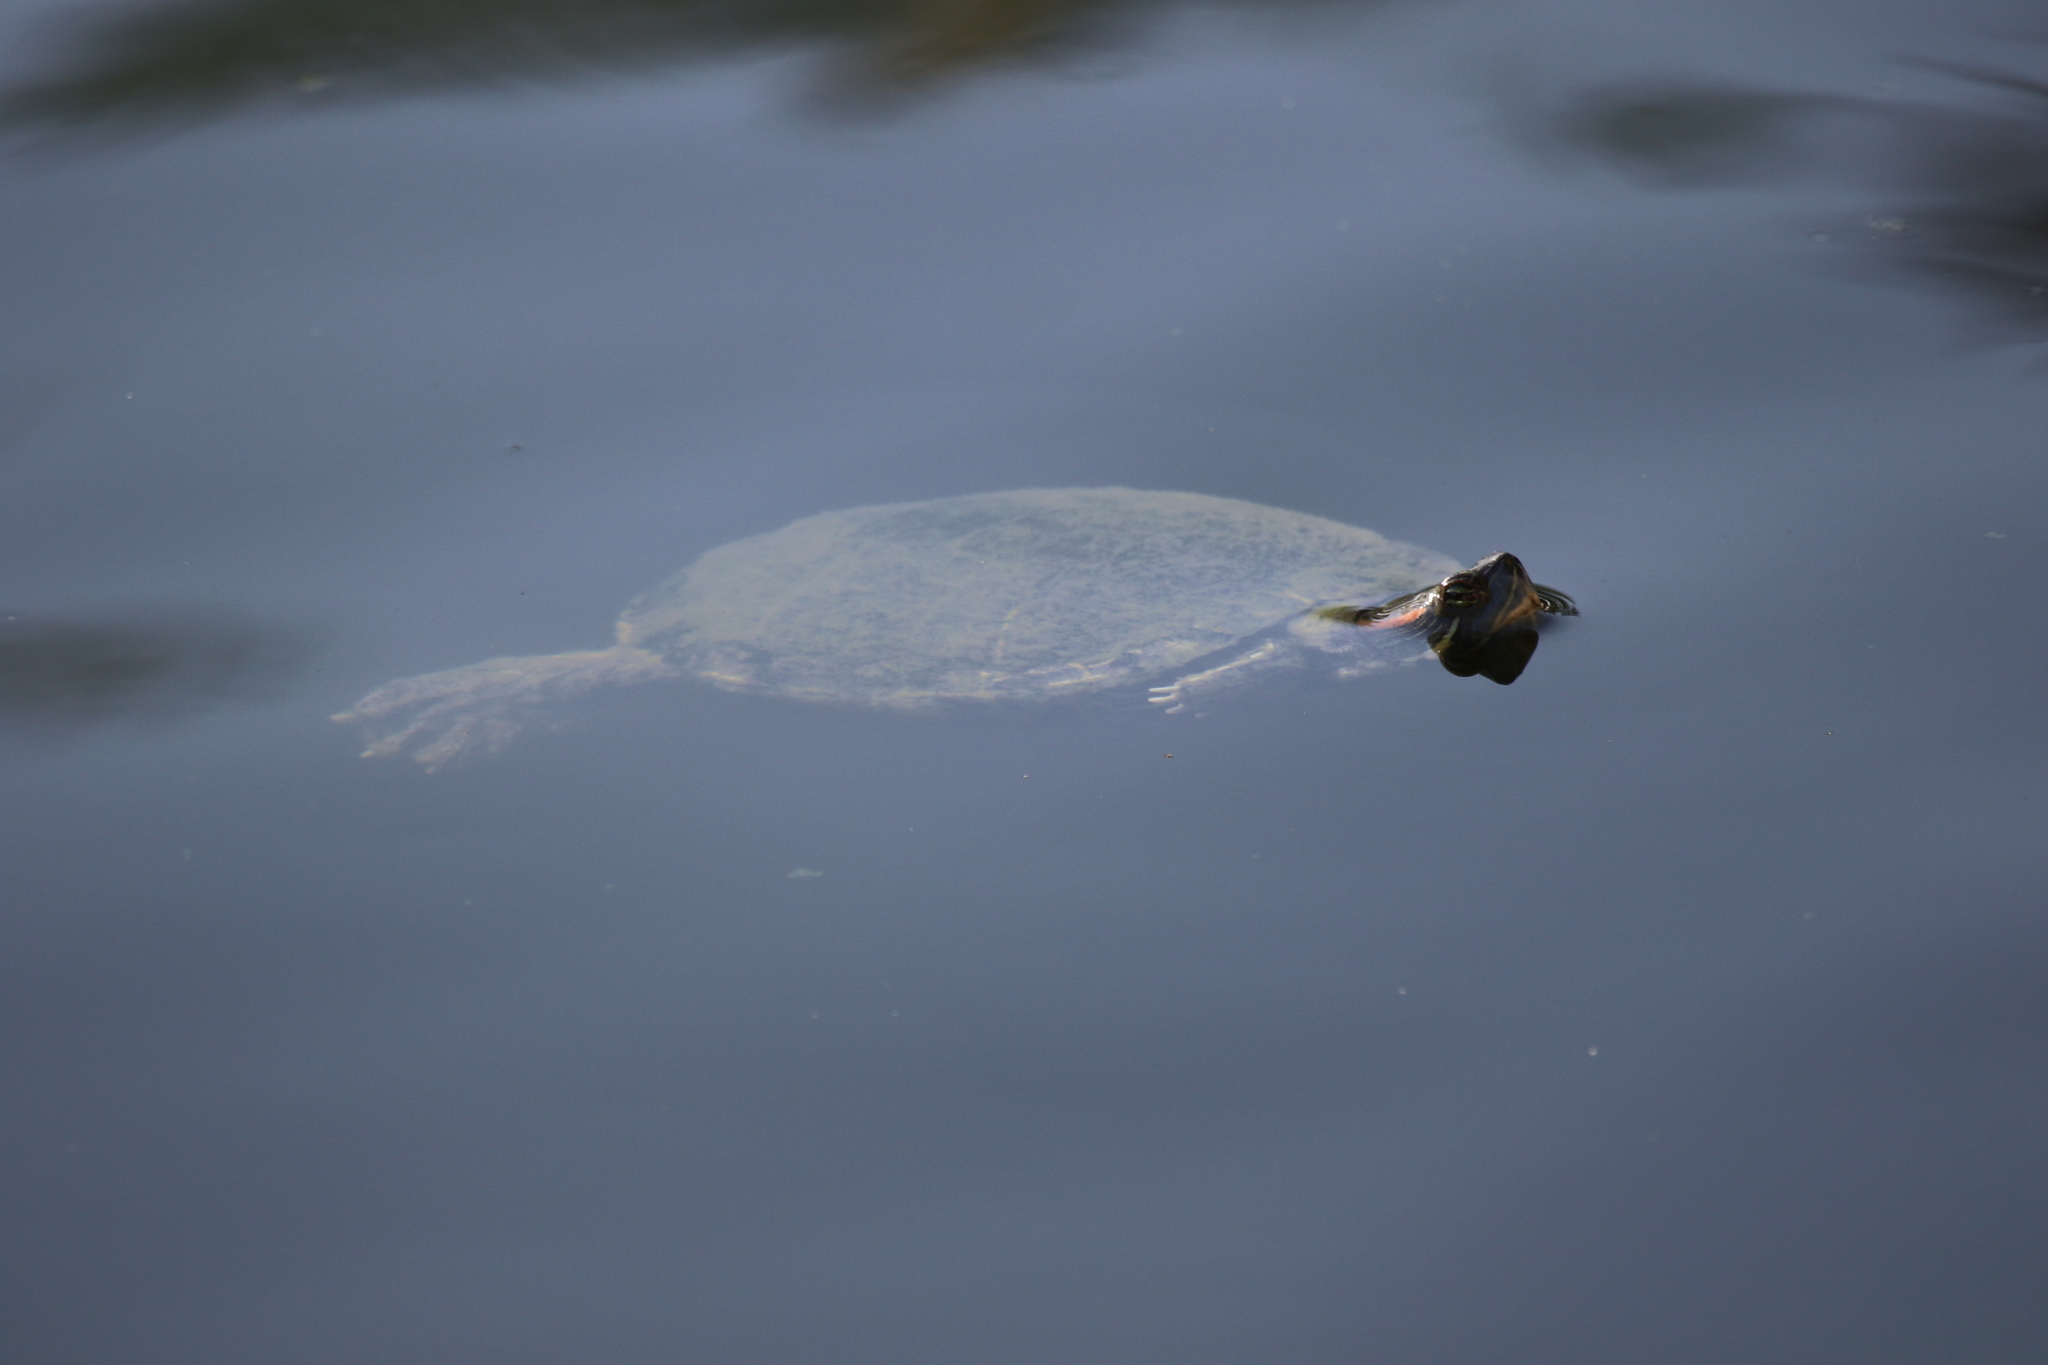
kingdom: Animalia
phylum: Chordata
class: Testudines
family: Emydidae
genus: Trachemys
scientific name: Trachemys scripta
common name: Slider
